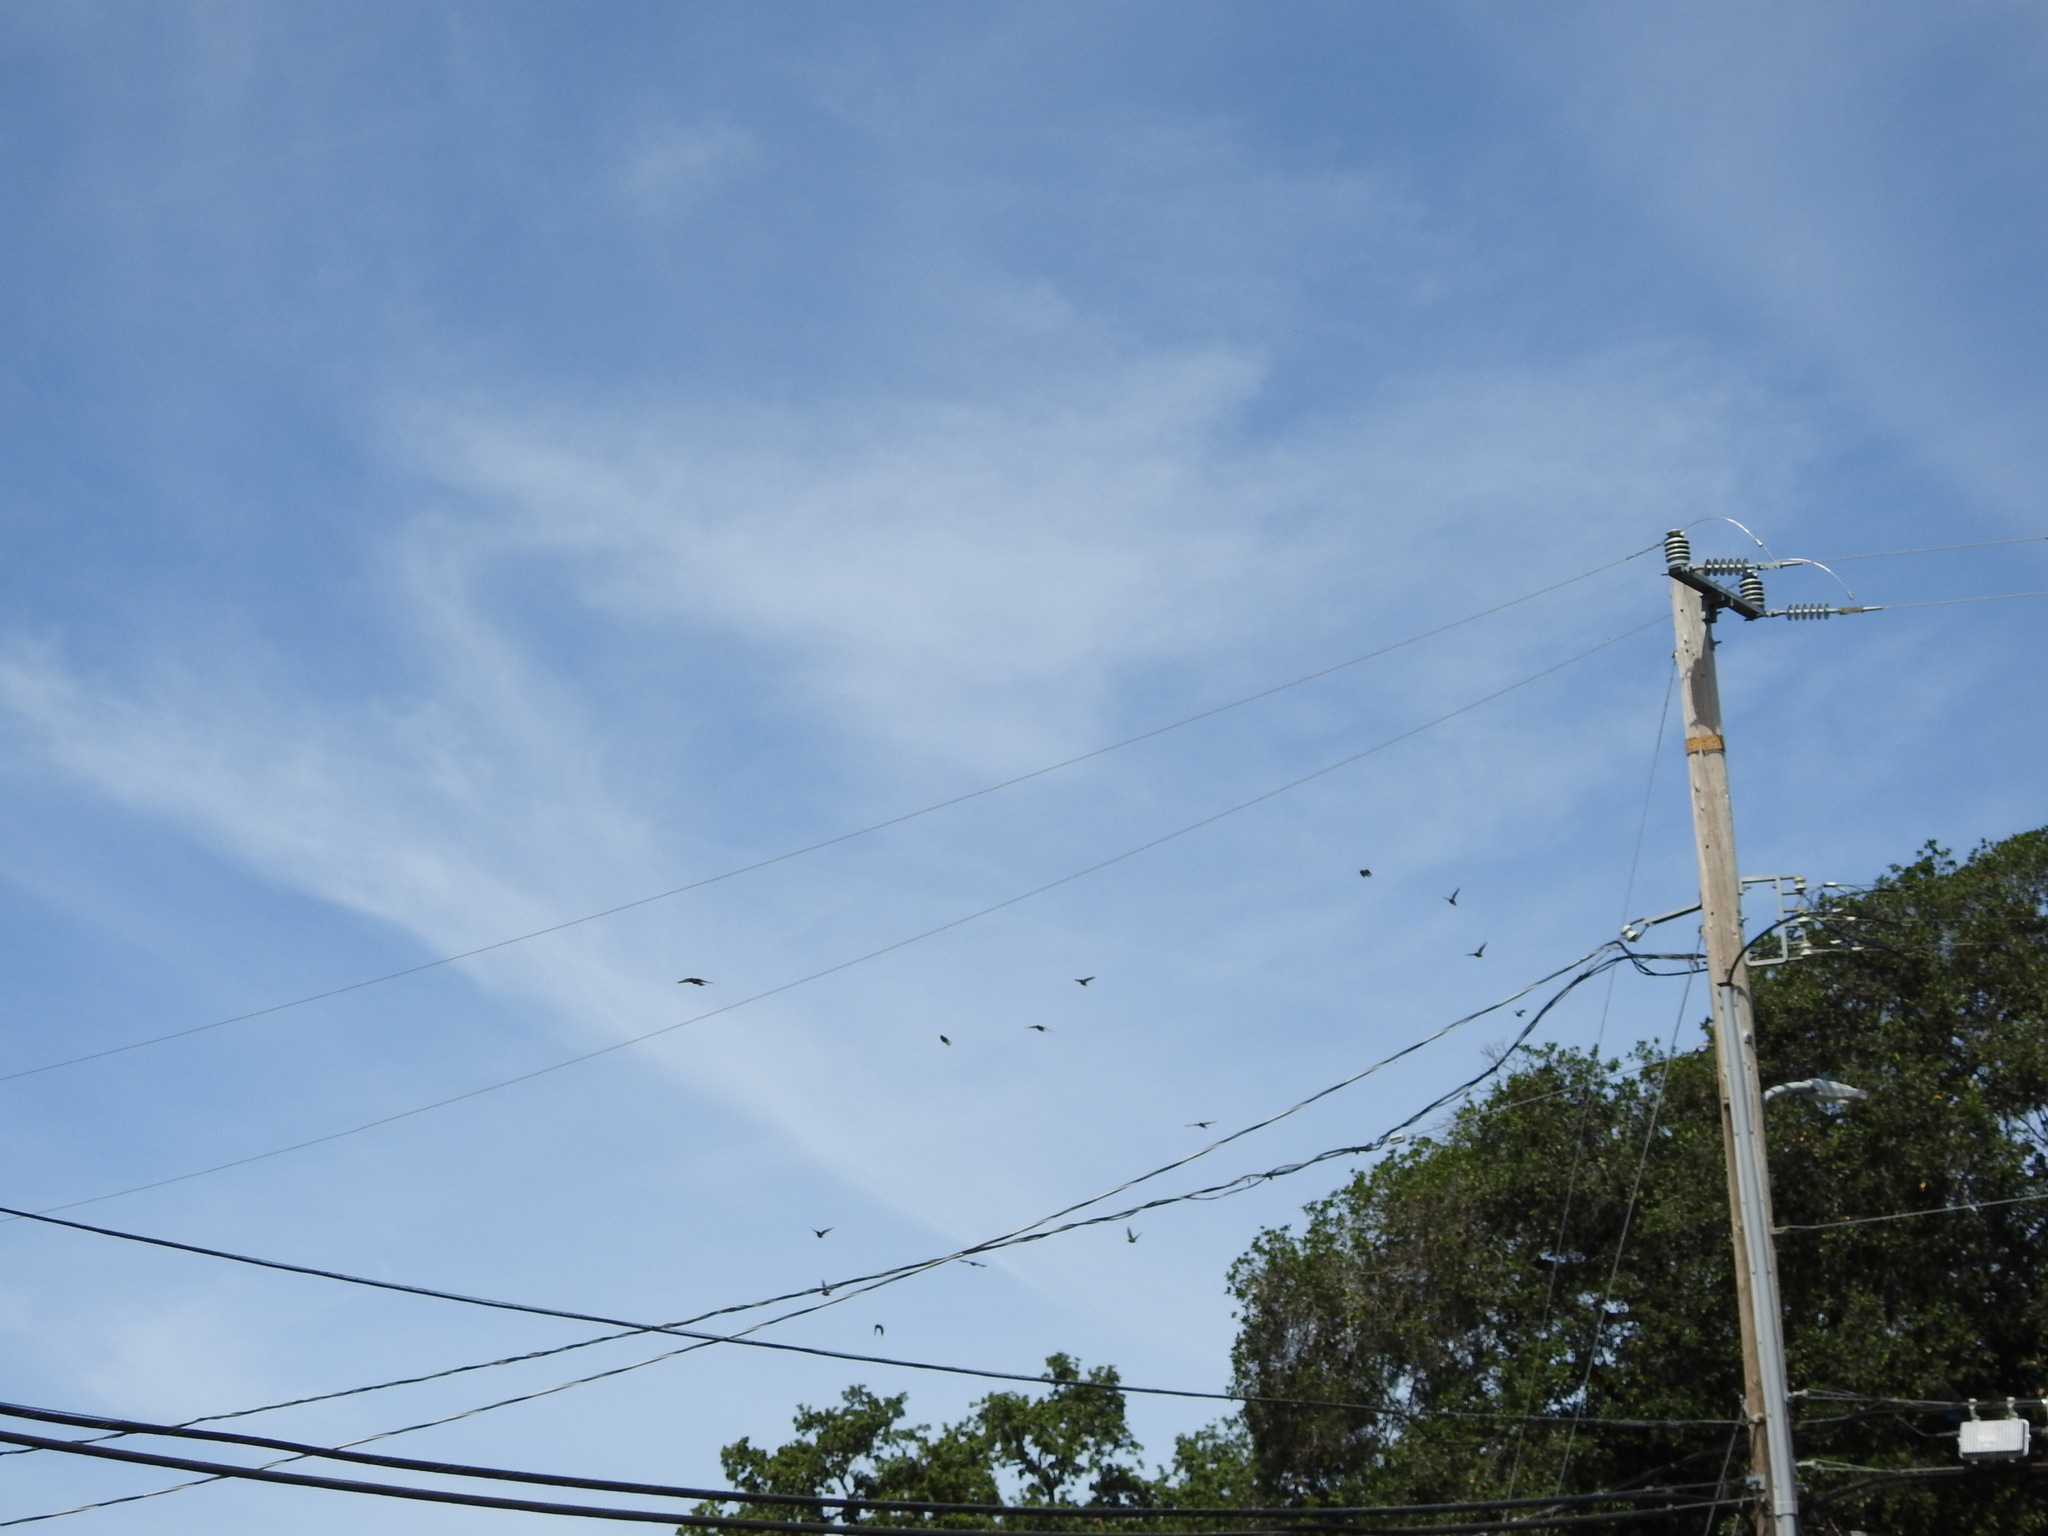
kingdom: Animalia
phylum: Chordata
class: Aves
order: Passeriformes
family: Bombycillidae
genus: Bombycilla
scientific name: Bombycilla cedrorum
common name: Cedar waxwing
